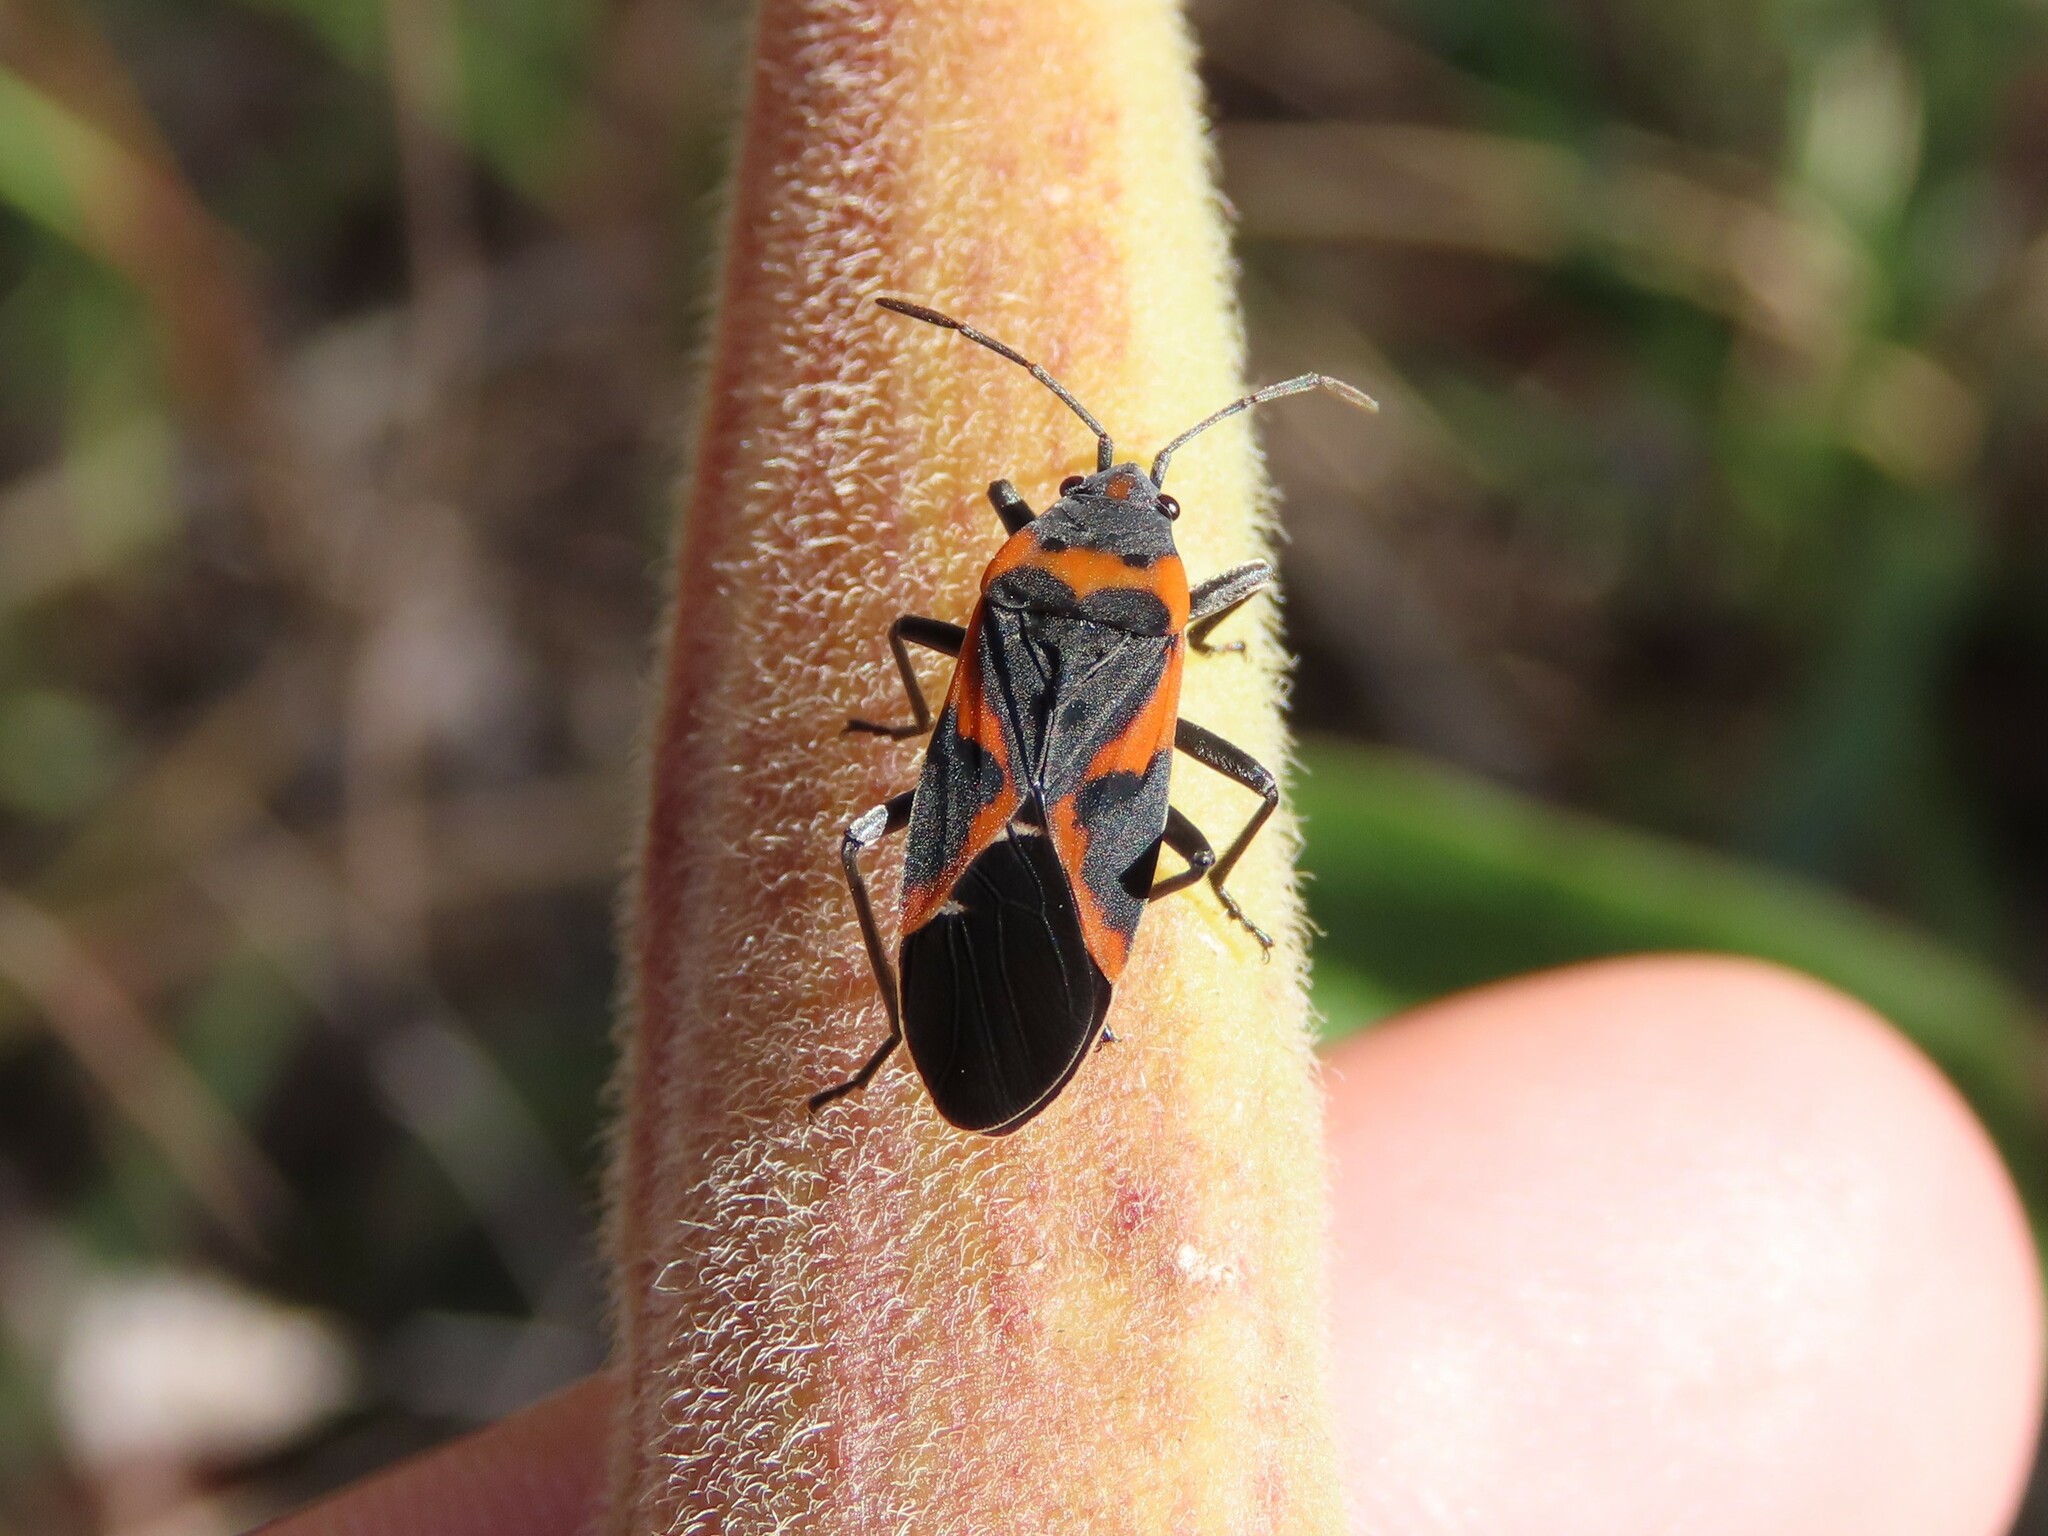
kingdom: Animalia
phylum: Arthropoda
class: Insecta
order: Hemiptera
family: Lygaeidae
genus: Lygaeus
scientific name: Lygaeus kalmii
